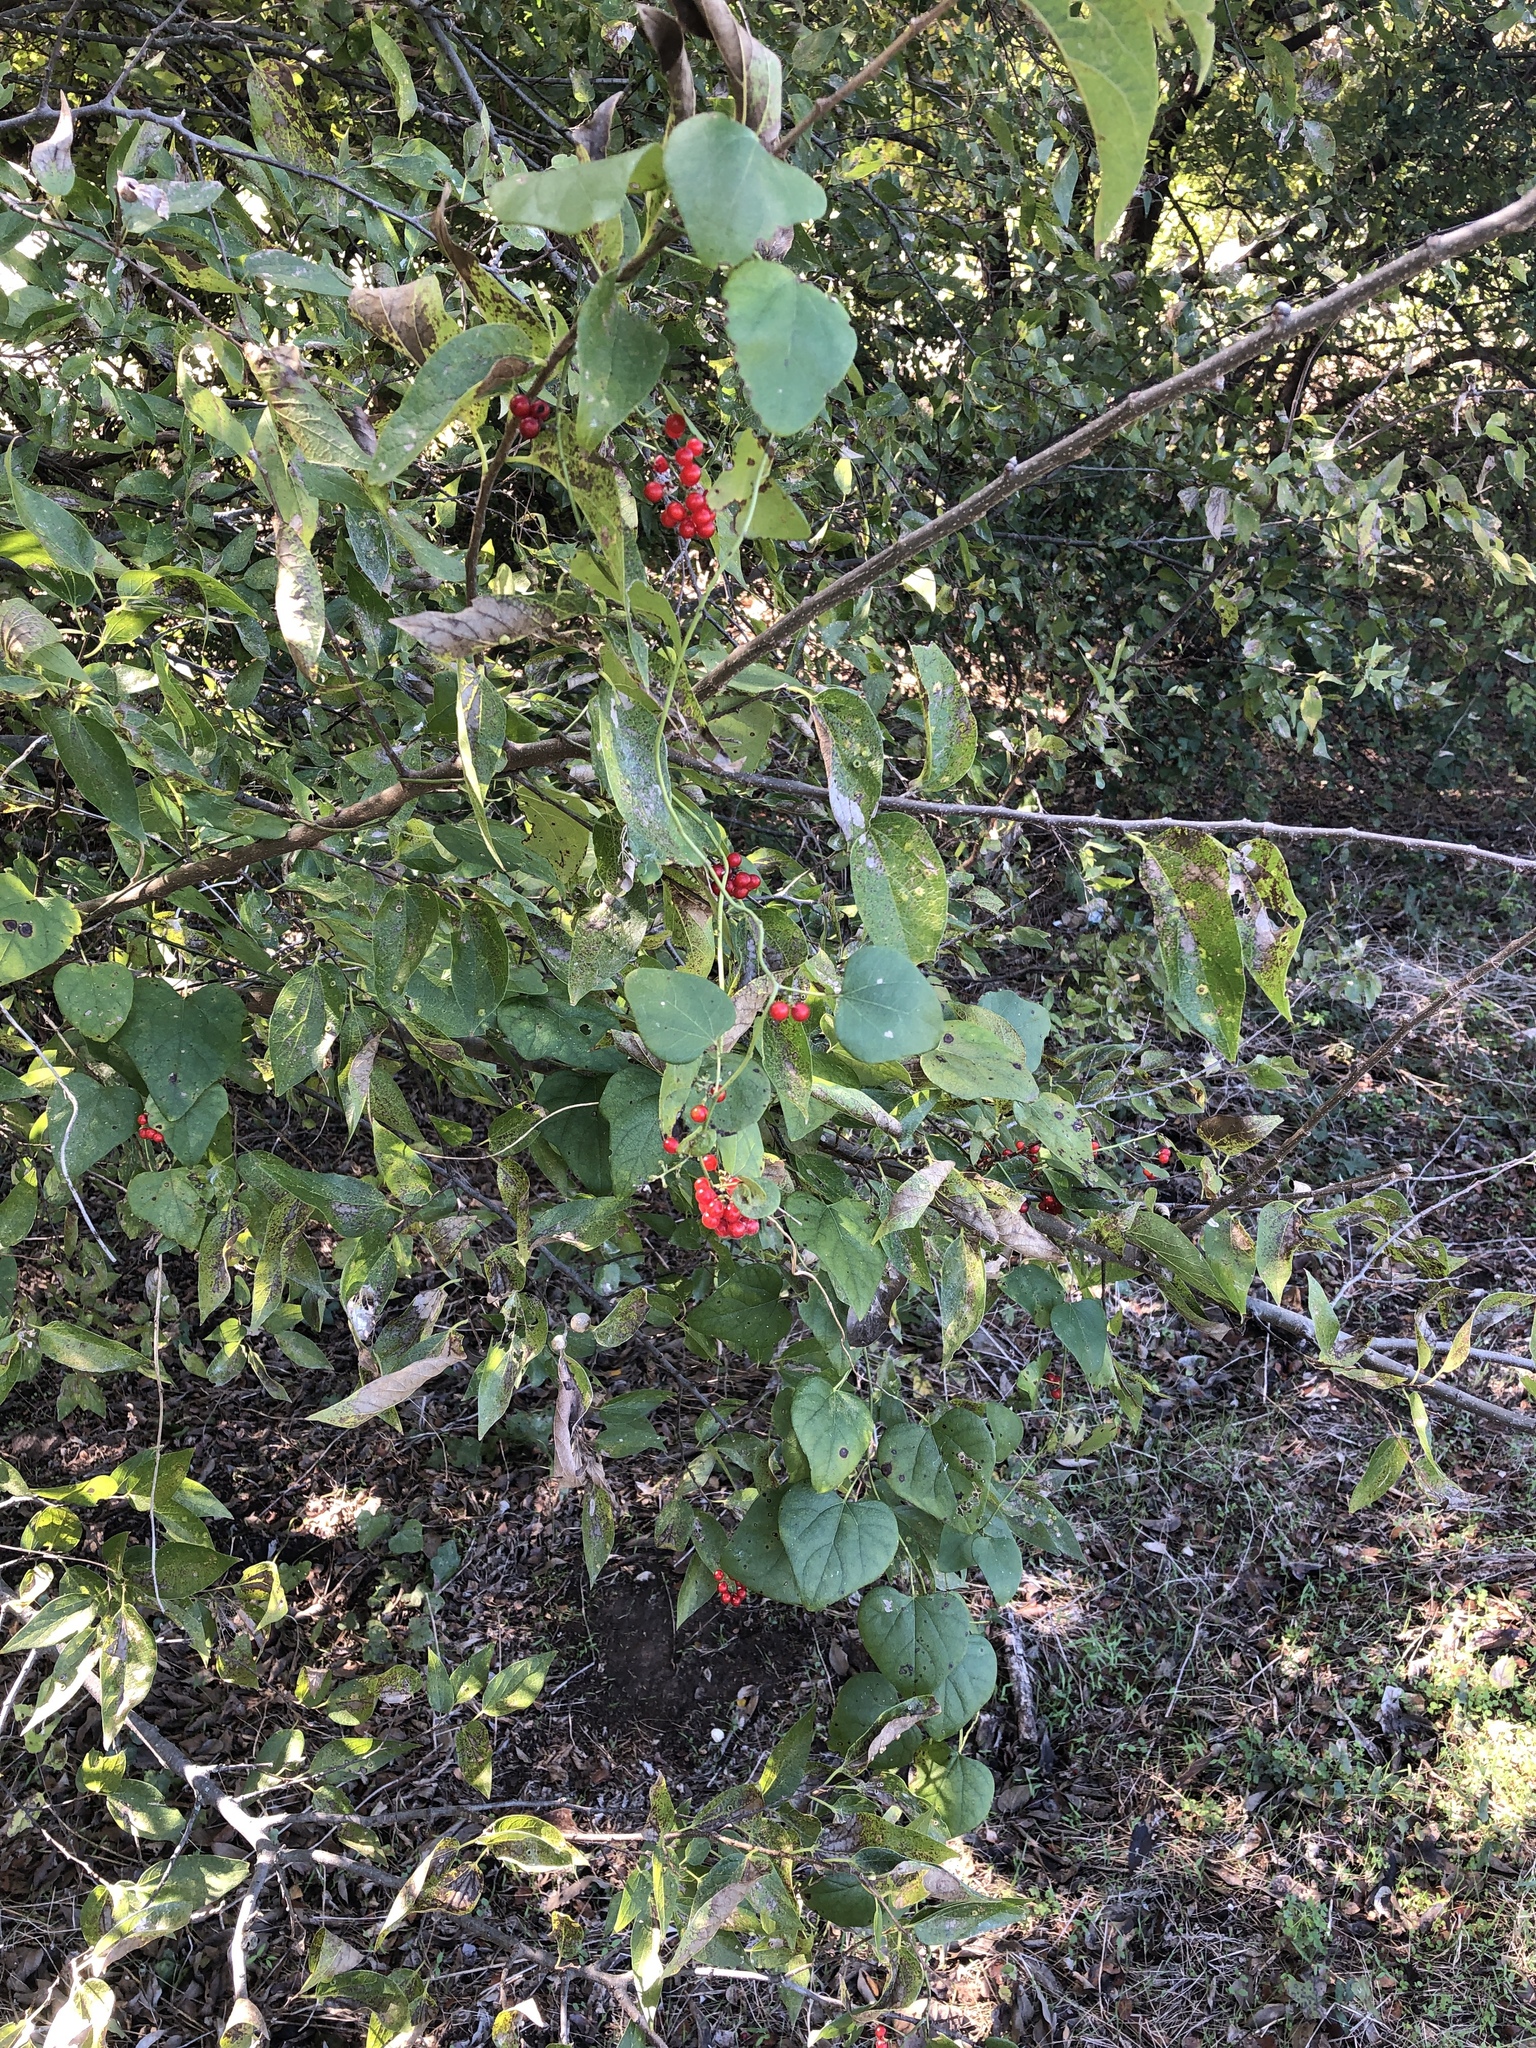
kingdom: Plantae
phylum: Tracheophyta
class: Magnoliopsida
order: Ranunculales
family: Menispermaceae
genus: Cocculus
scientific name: Cocculus carolinus
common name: Carolina moonseed
